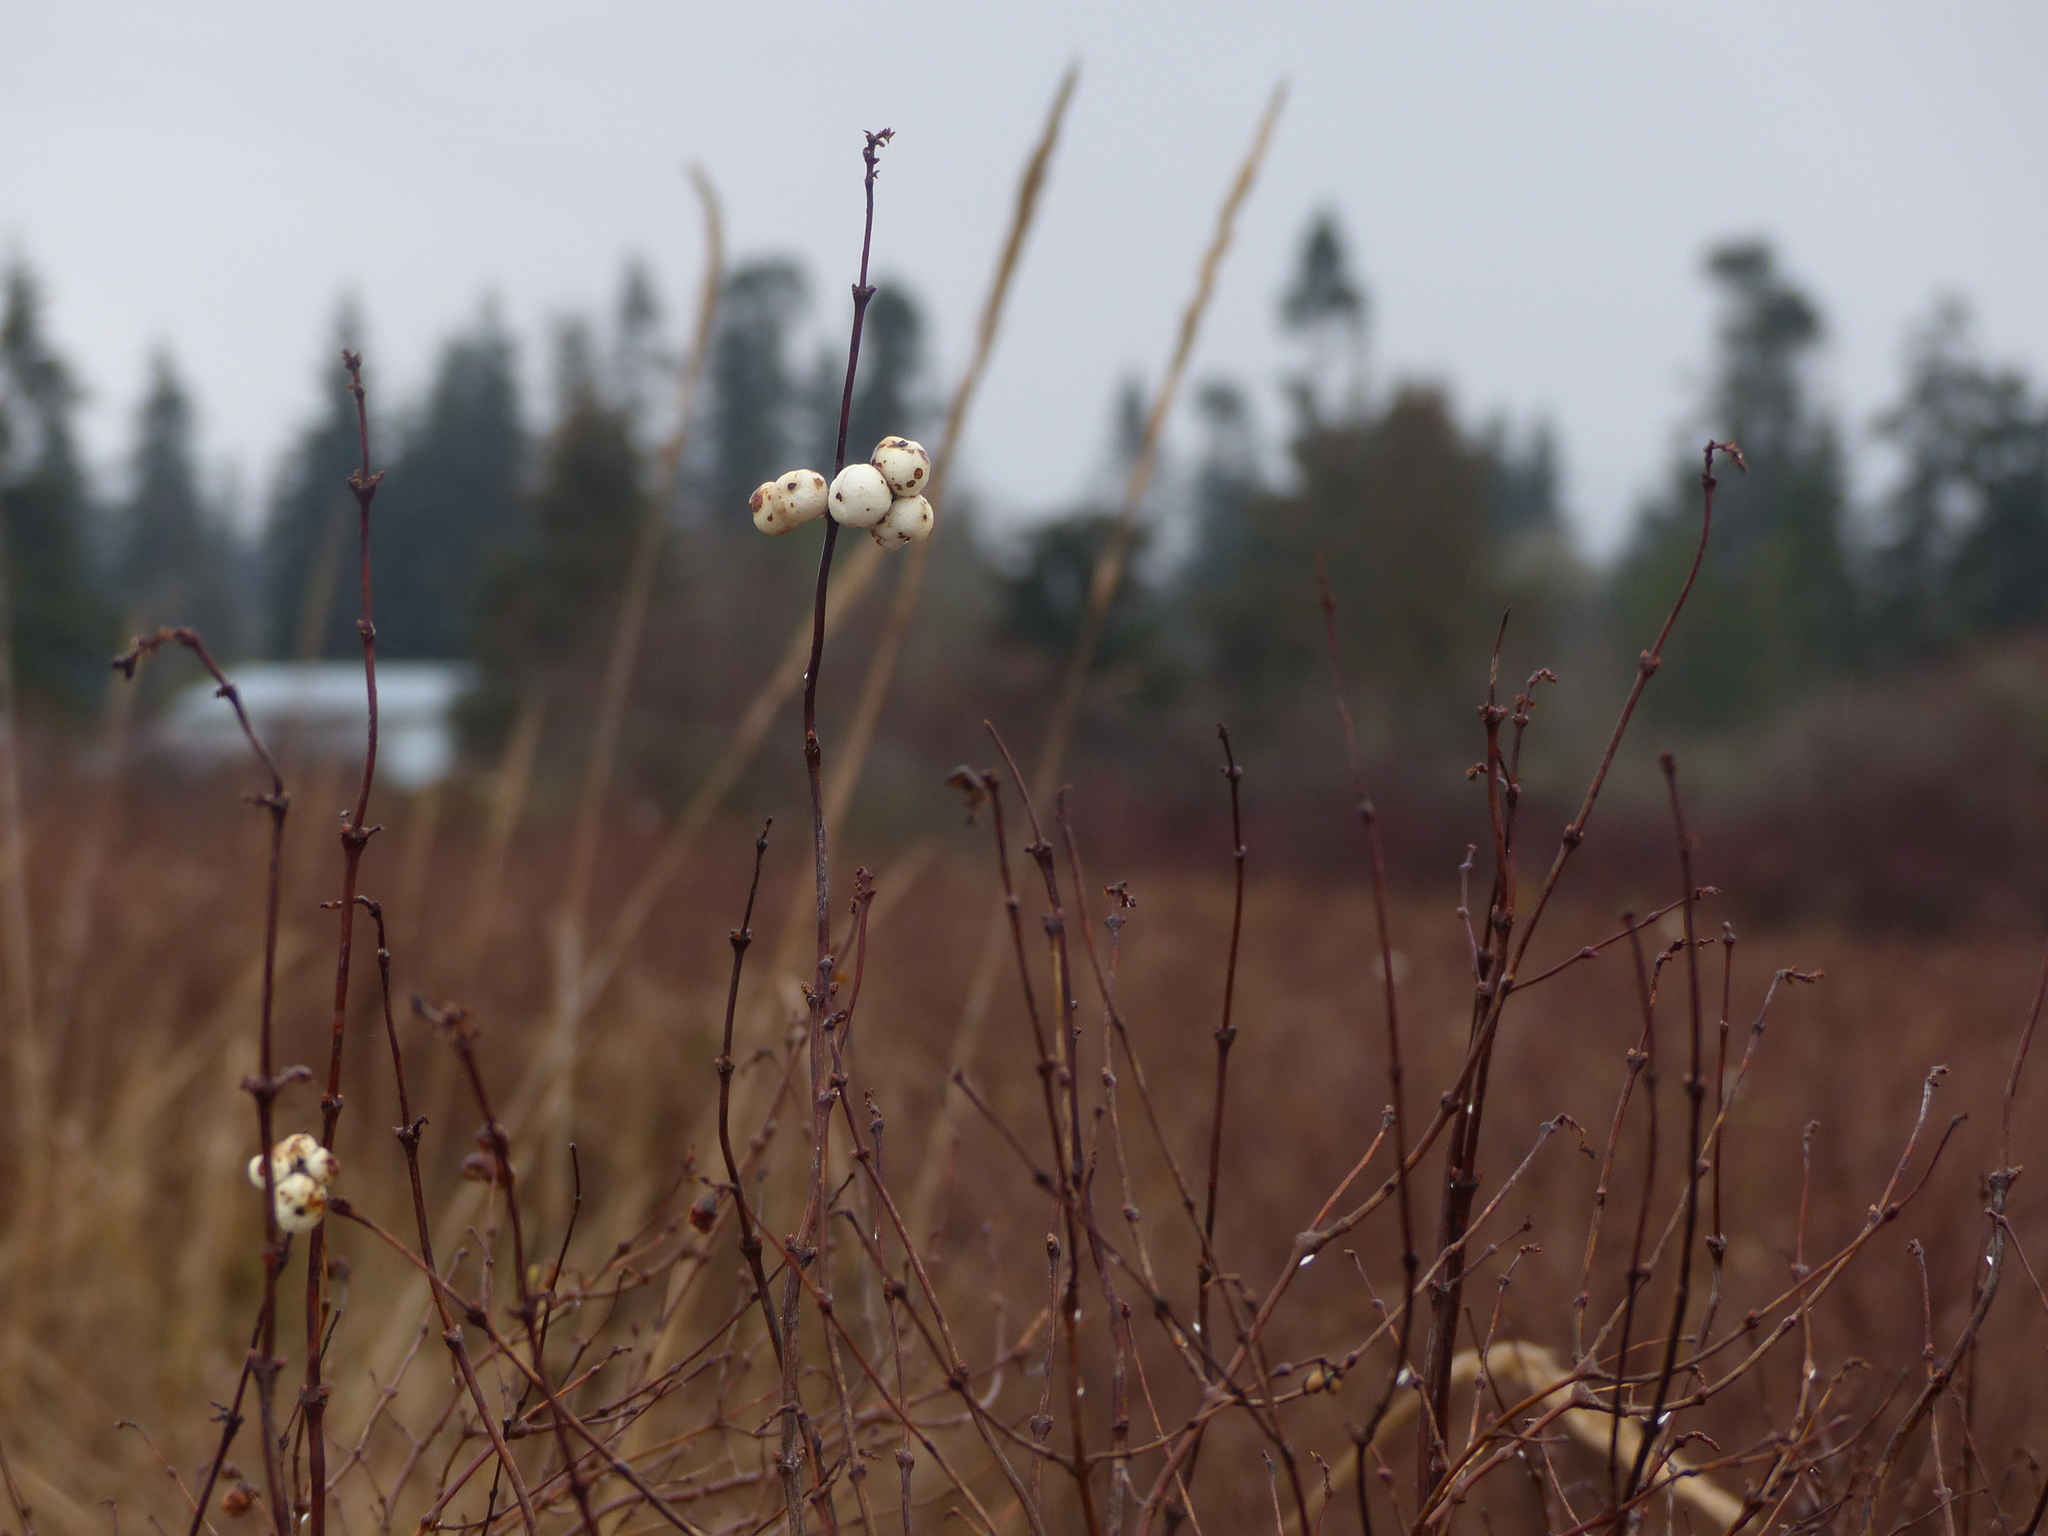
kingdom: Plantae
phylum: Tracheophyta
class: Magnoliopsida
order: Dipsacales
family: Caprifoliaceae
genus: Symphoricarpos
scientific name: Symphoricarpos albus
